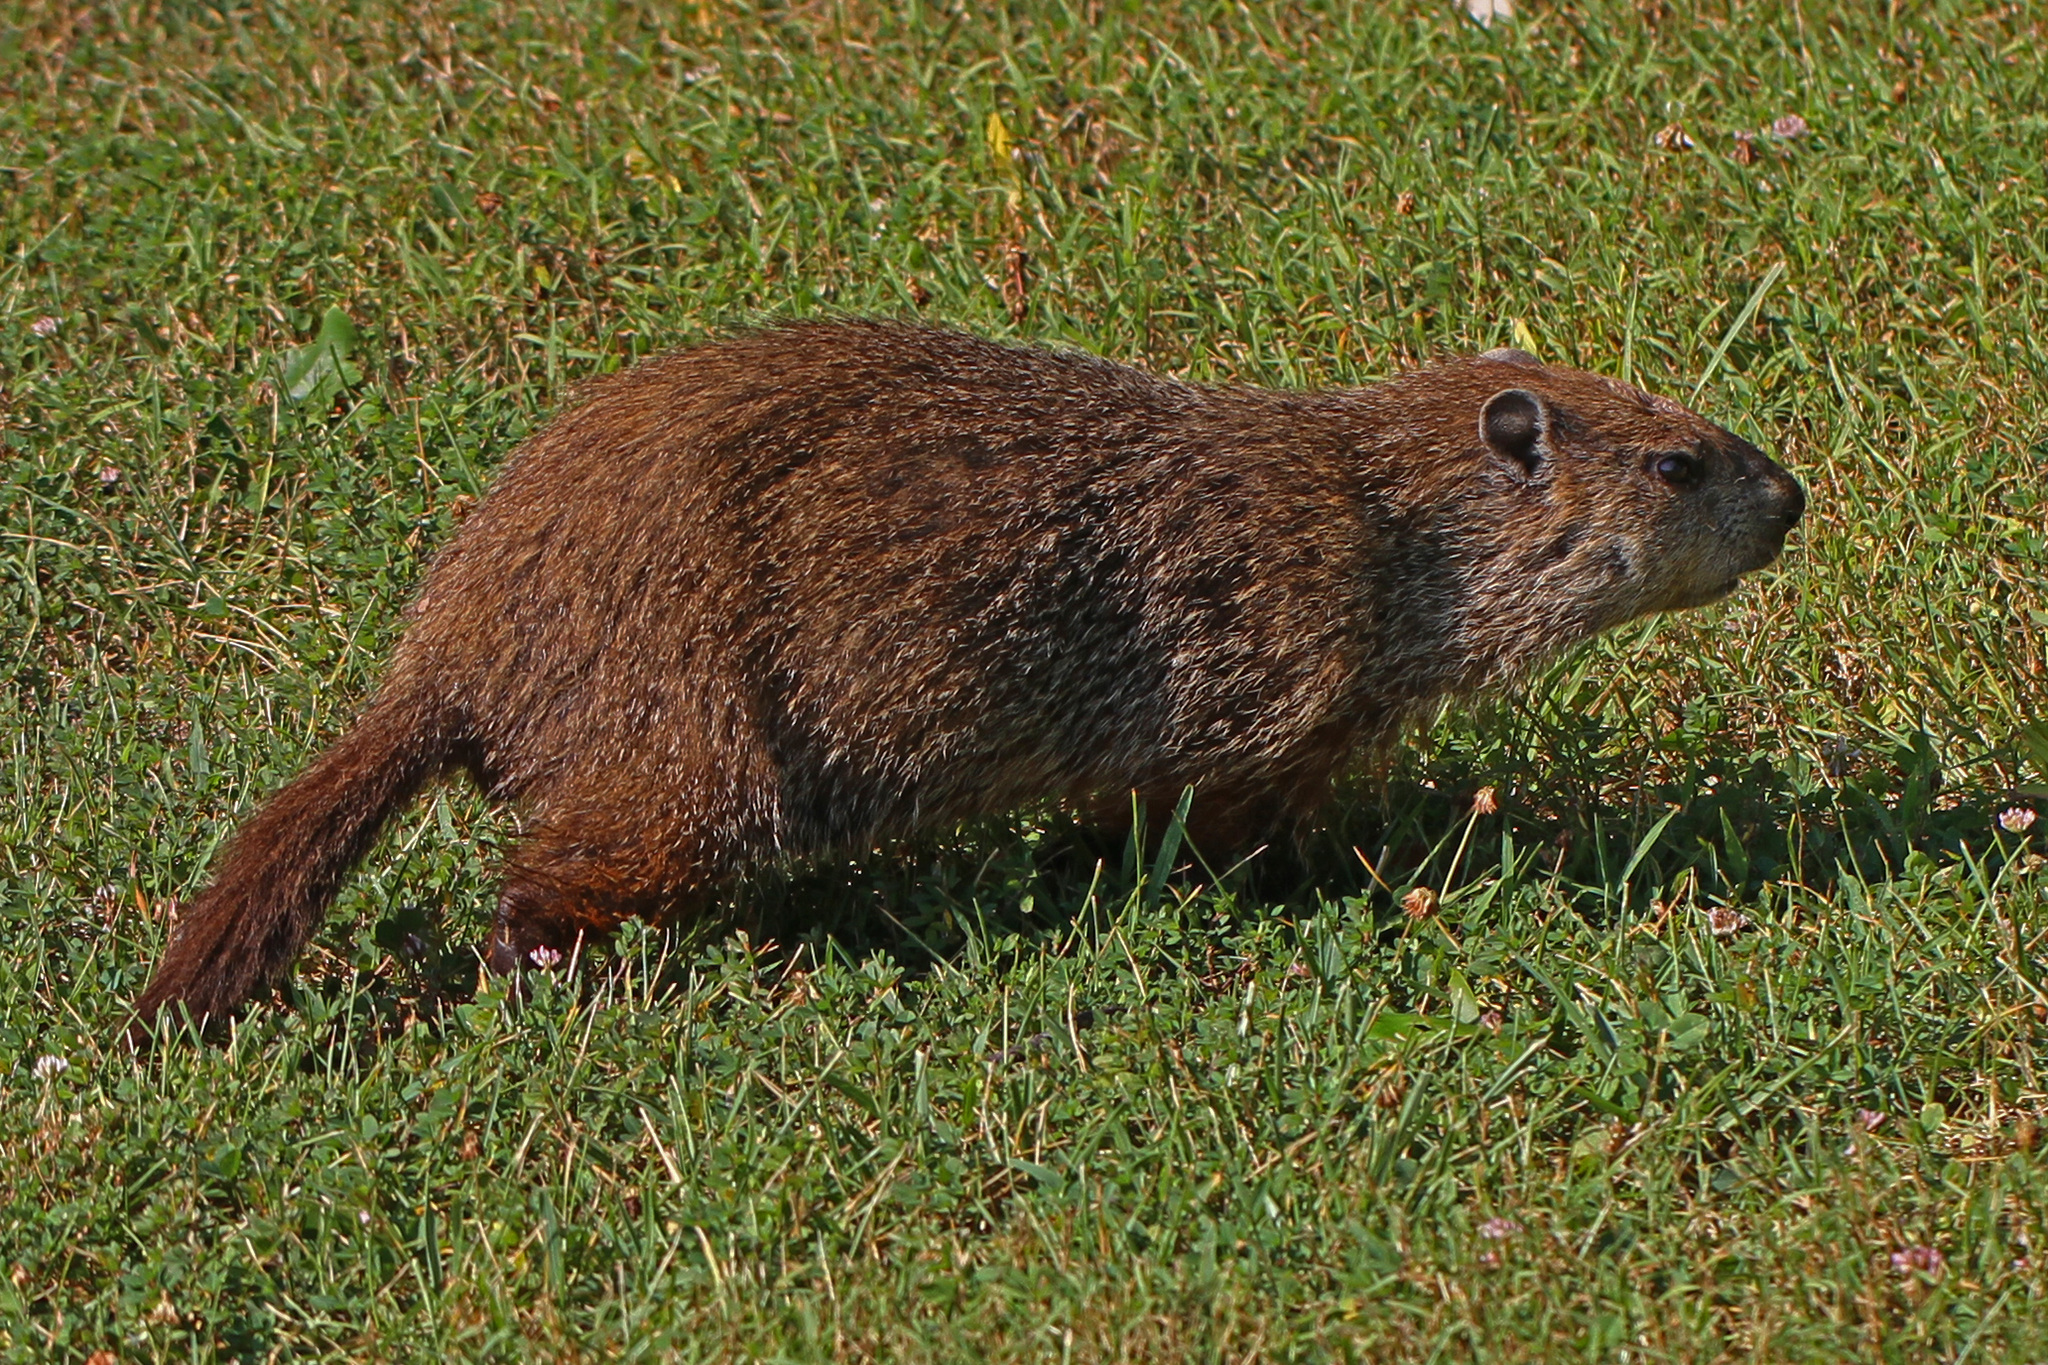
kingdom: Animalia
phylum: Chordata
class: Mammalia
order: Rodentia
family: Sciuridae
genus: Marmota
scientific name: Marmota monax
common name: Groundhog
